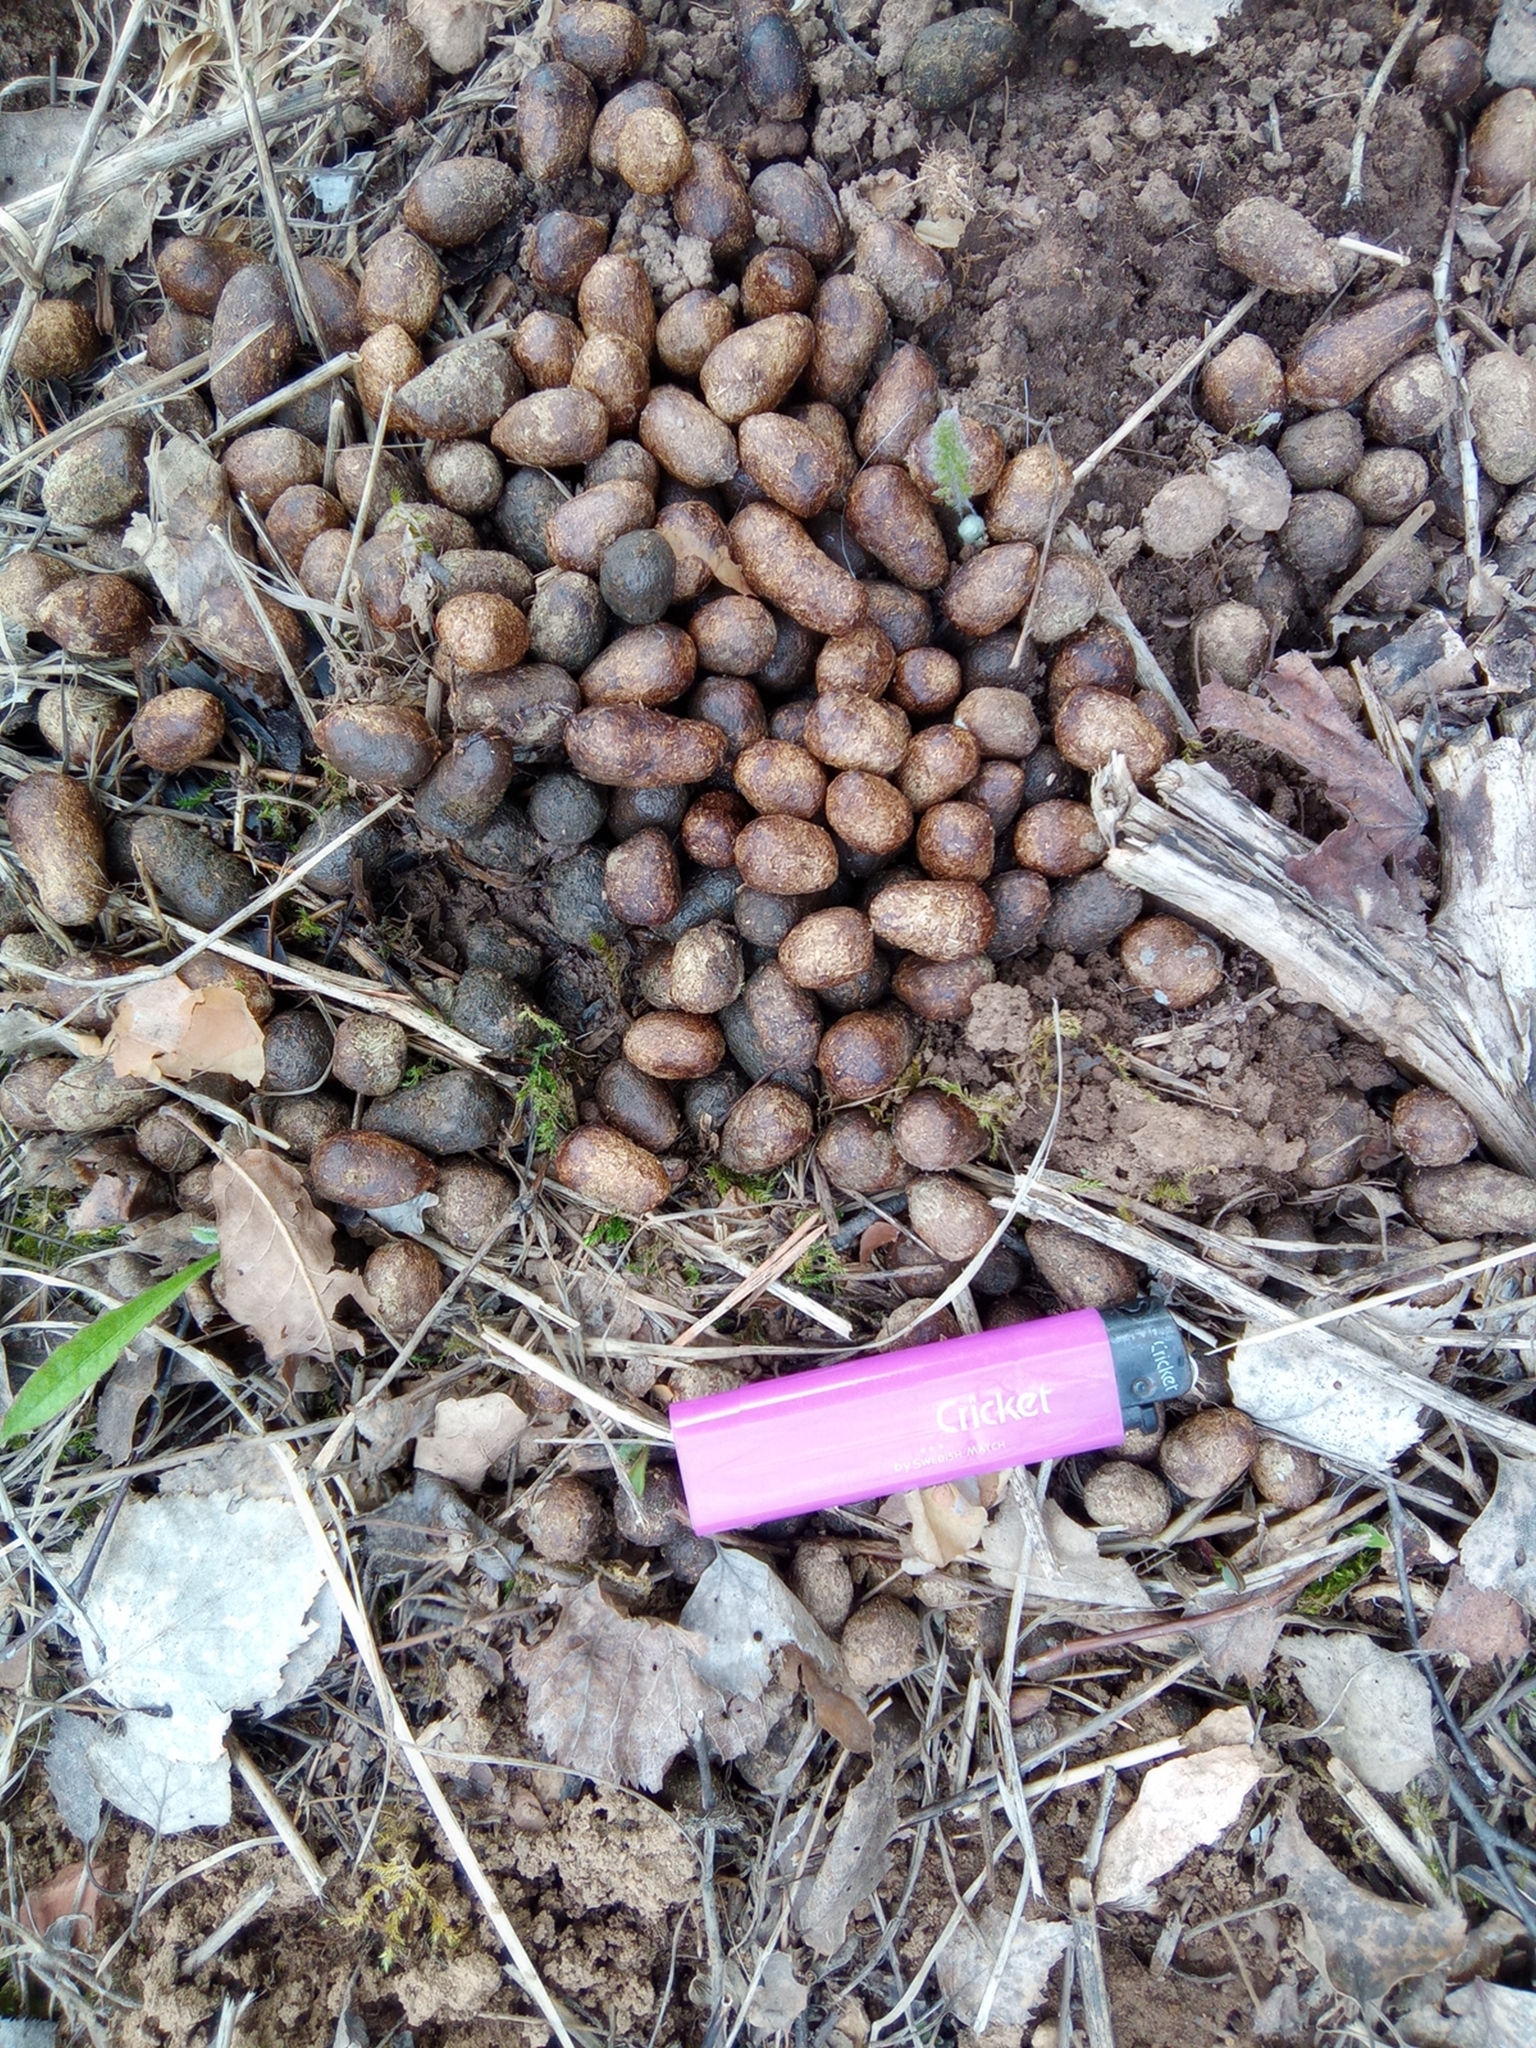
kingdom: Animalia
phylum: Chordata
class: Mammalia
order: Artiodactyla
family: Cervidae
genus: Capreolus
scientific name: Capreolus pygargus
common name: Siberian roe
